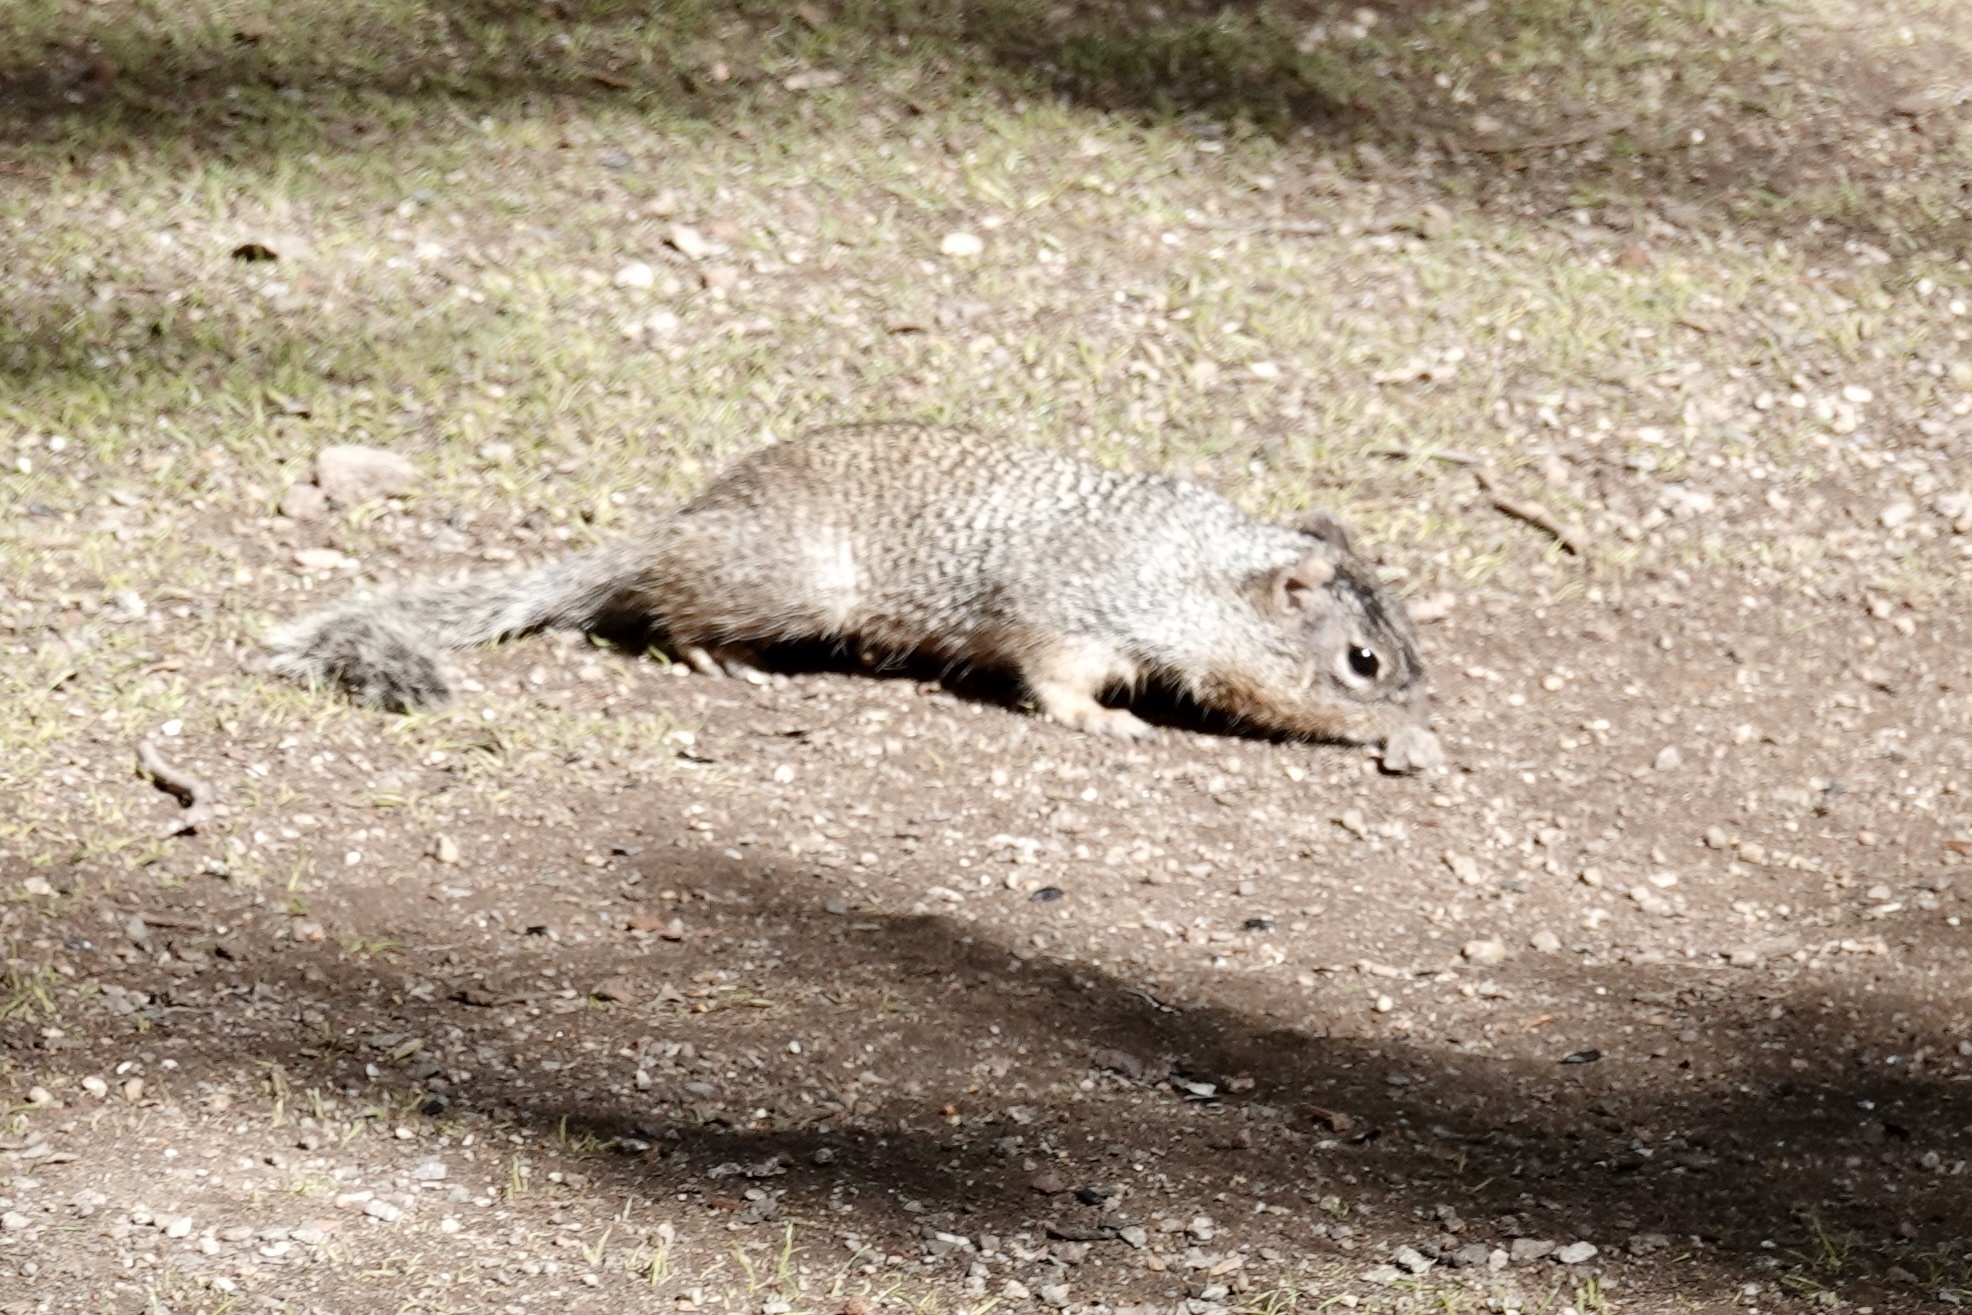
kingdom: Animalia
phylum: Chordata
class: Mammalia
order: Rodentia
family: Sciuridae
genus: Otospermophilus
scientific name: Otospermophilus variegatus
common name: Rock squirrel
